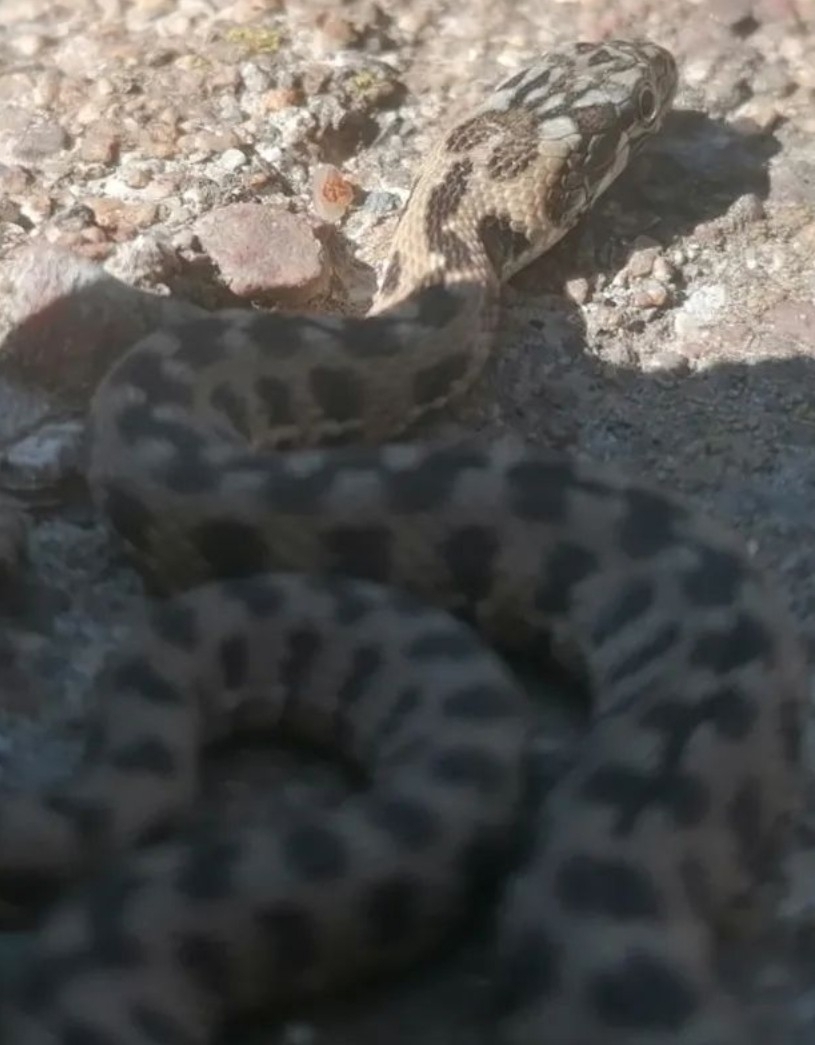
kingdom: Animalia
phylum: Chordata
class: Squamata
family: Colubridae
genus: Natrix
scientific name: Natrix maura
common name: Viperine water snake
